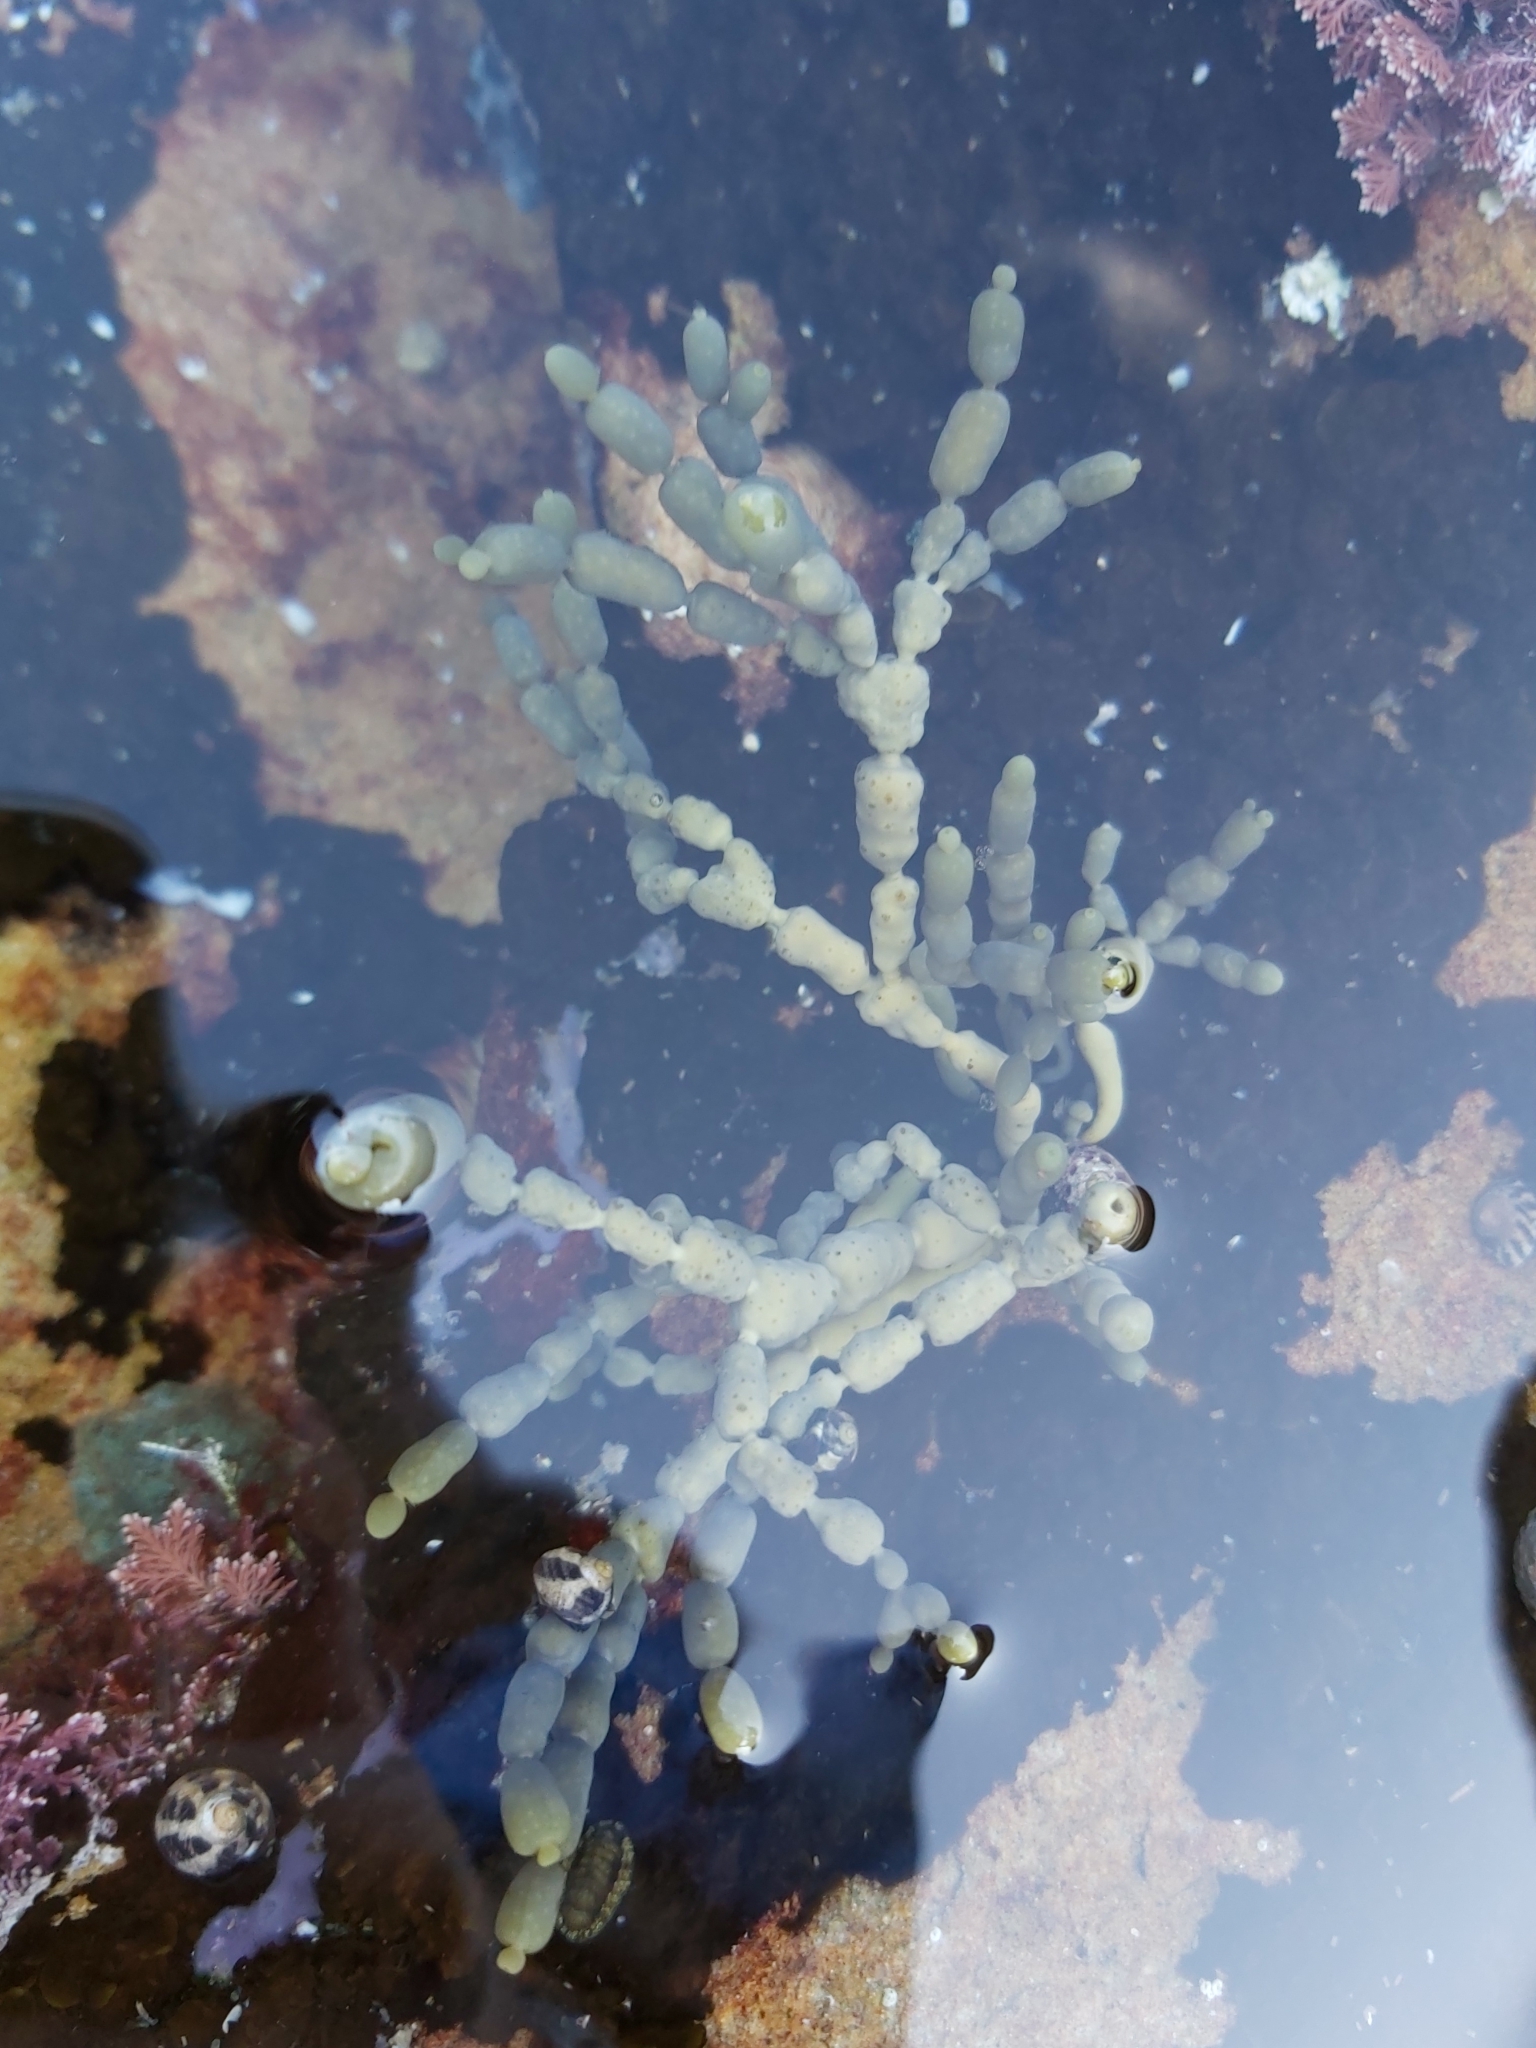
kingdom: Chromista
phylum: Ochrophyta
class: Phaeophyceae
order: Fucales
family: Hormosiraceae
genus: Hormosira
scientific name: Hormosira banksii
